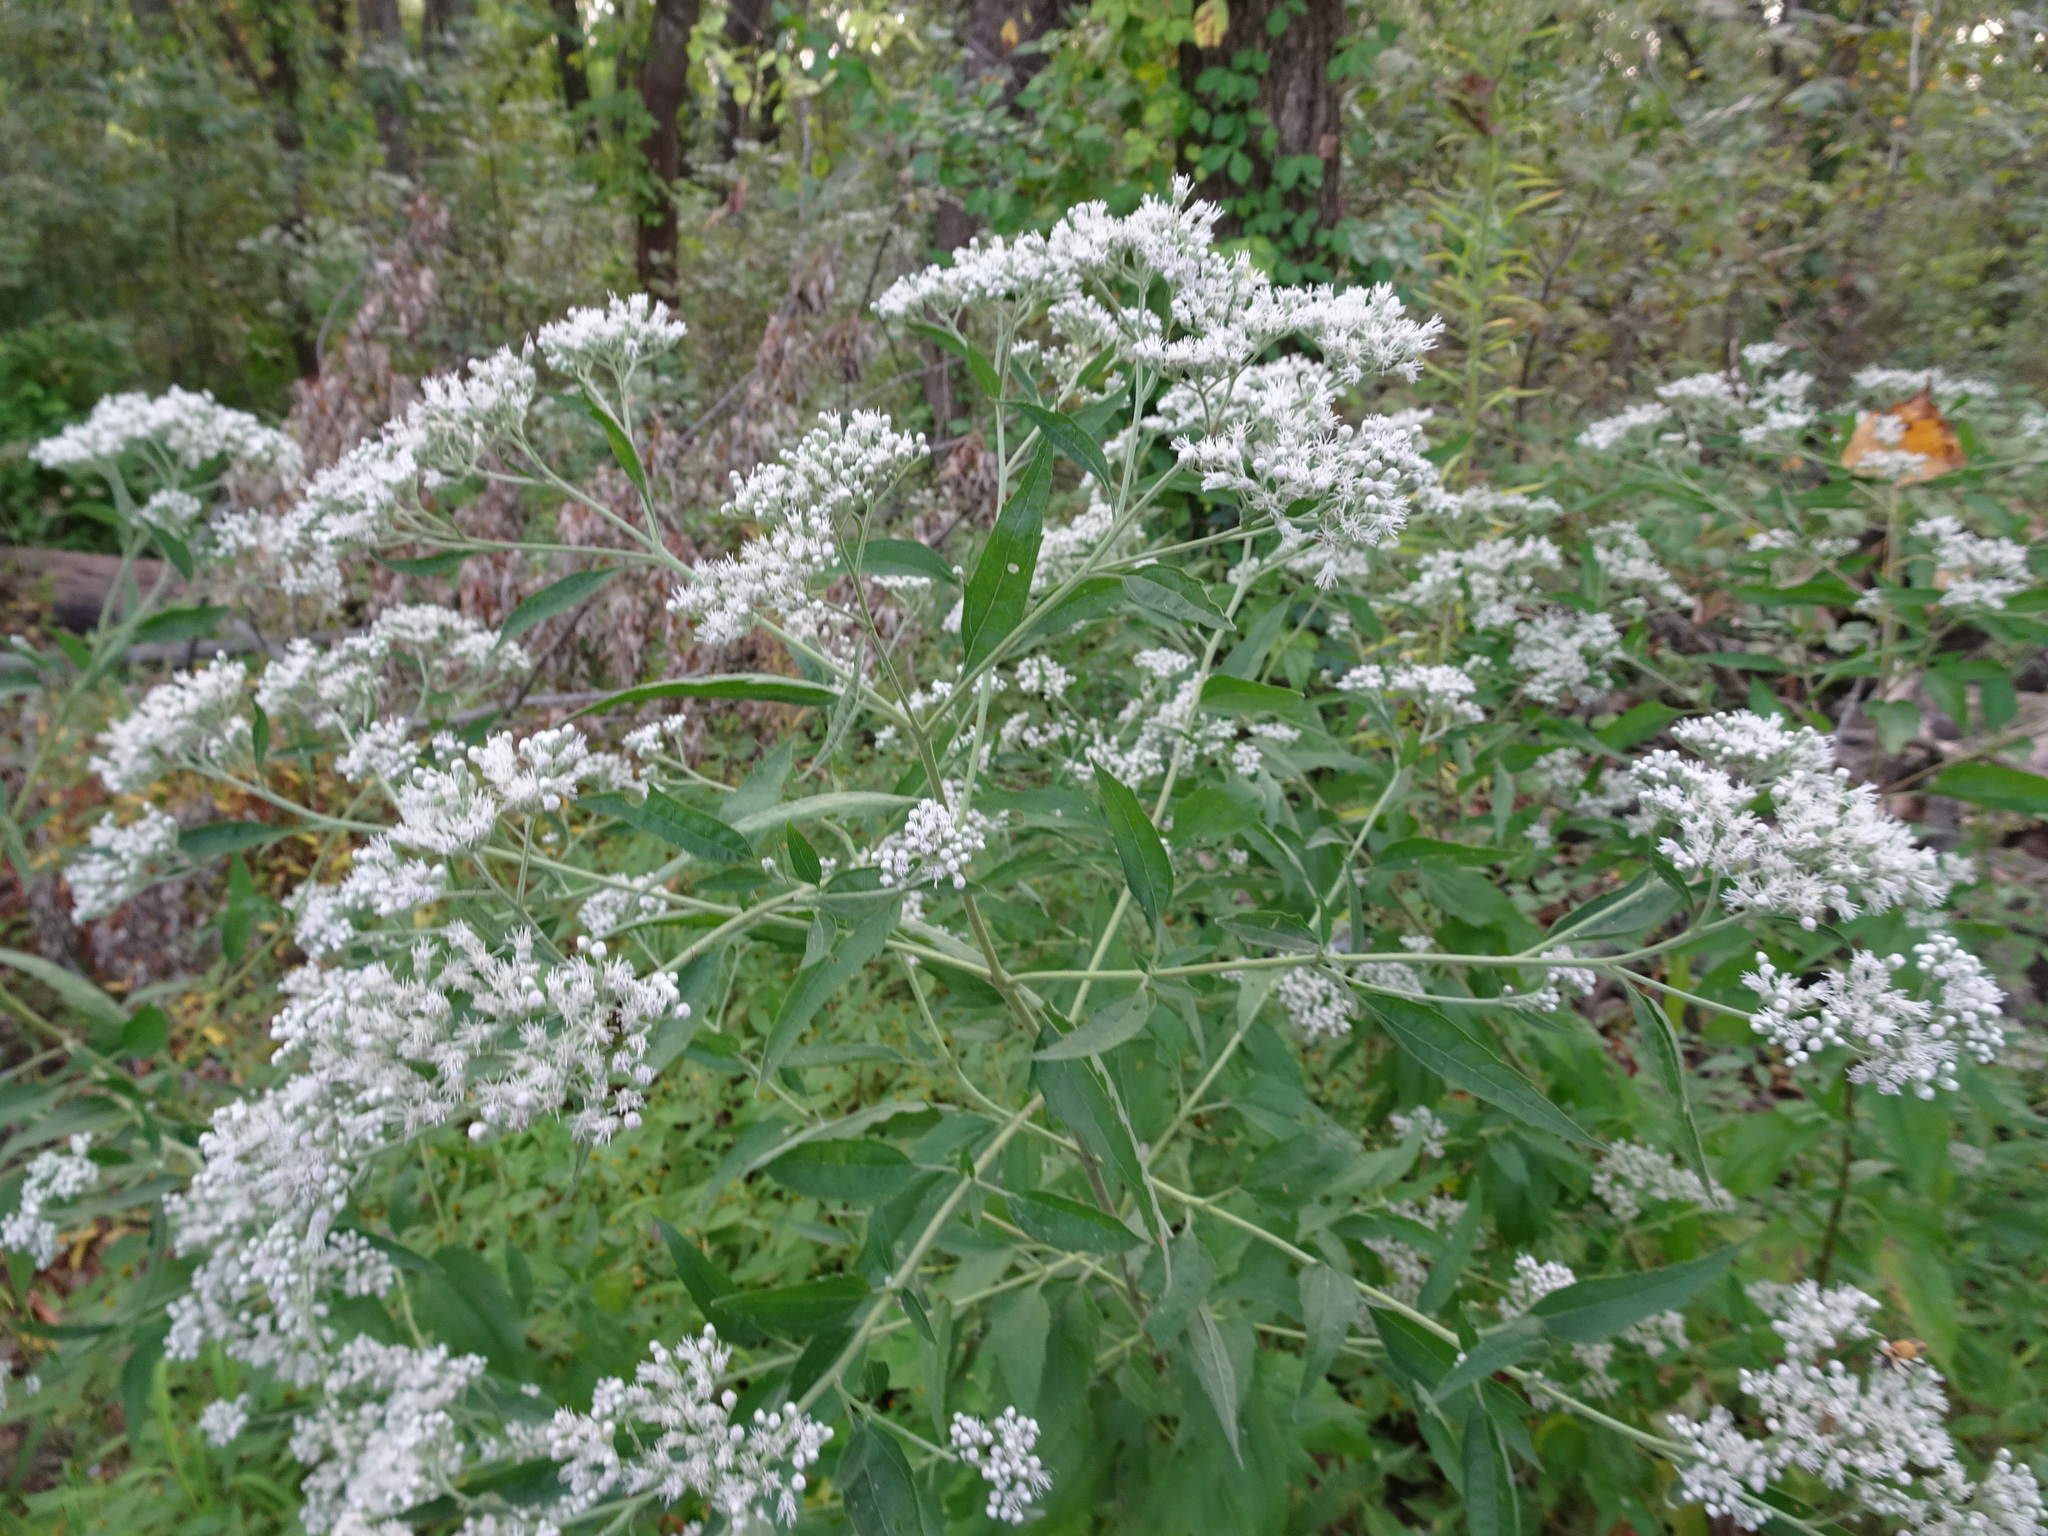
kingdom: Plantae
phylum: Tracheophyta
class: Magnoliopsida
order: Asterales
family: Asteraceae
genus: Eupatorium
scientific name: Eupatorium serotinum
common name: Late boneset
